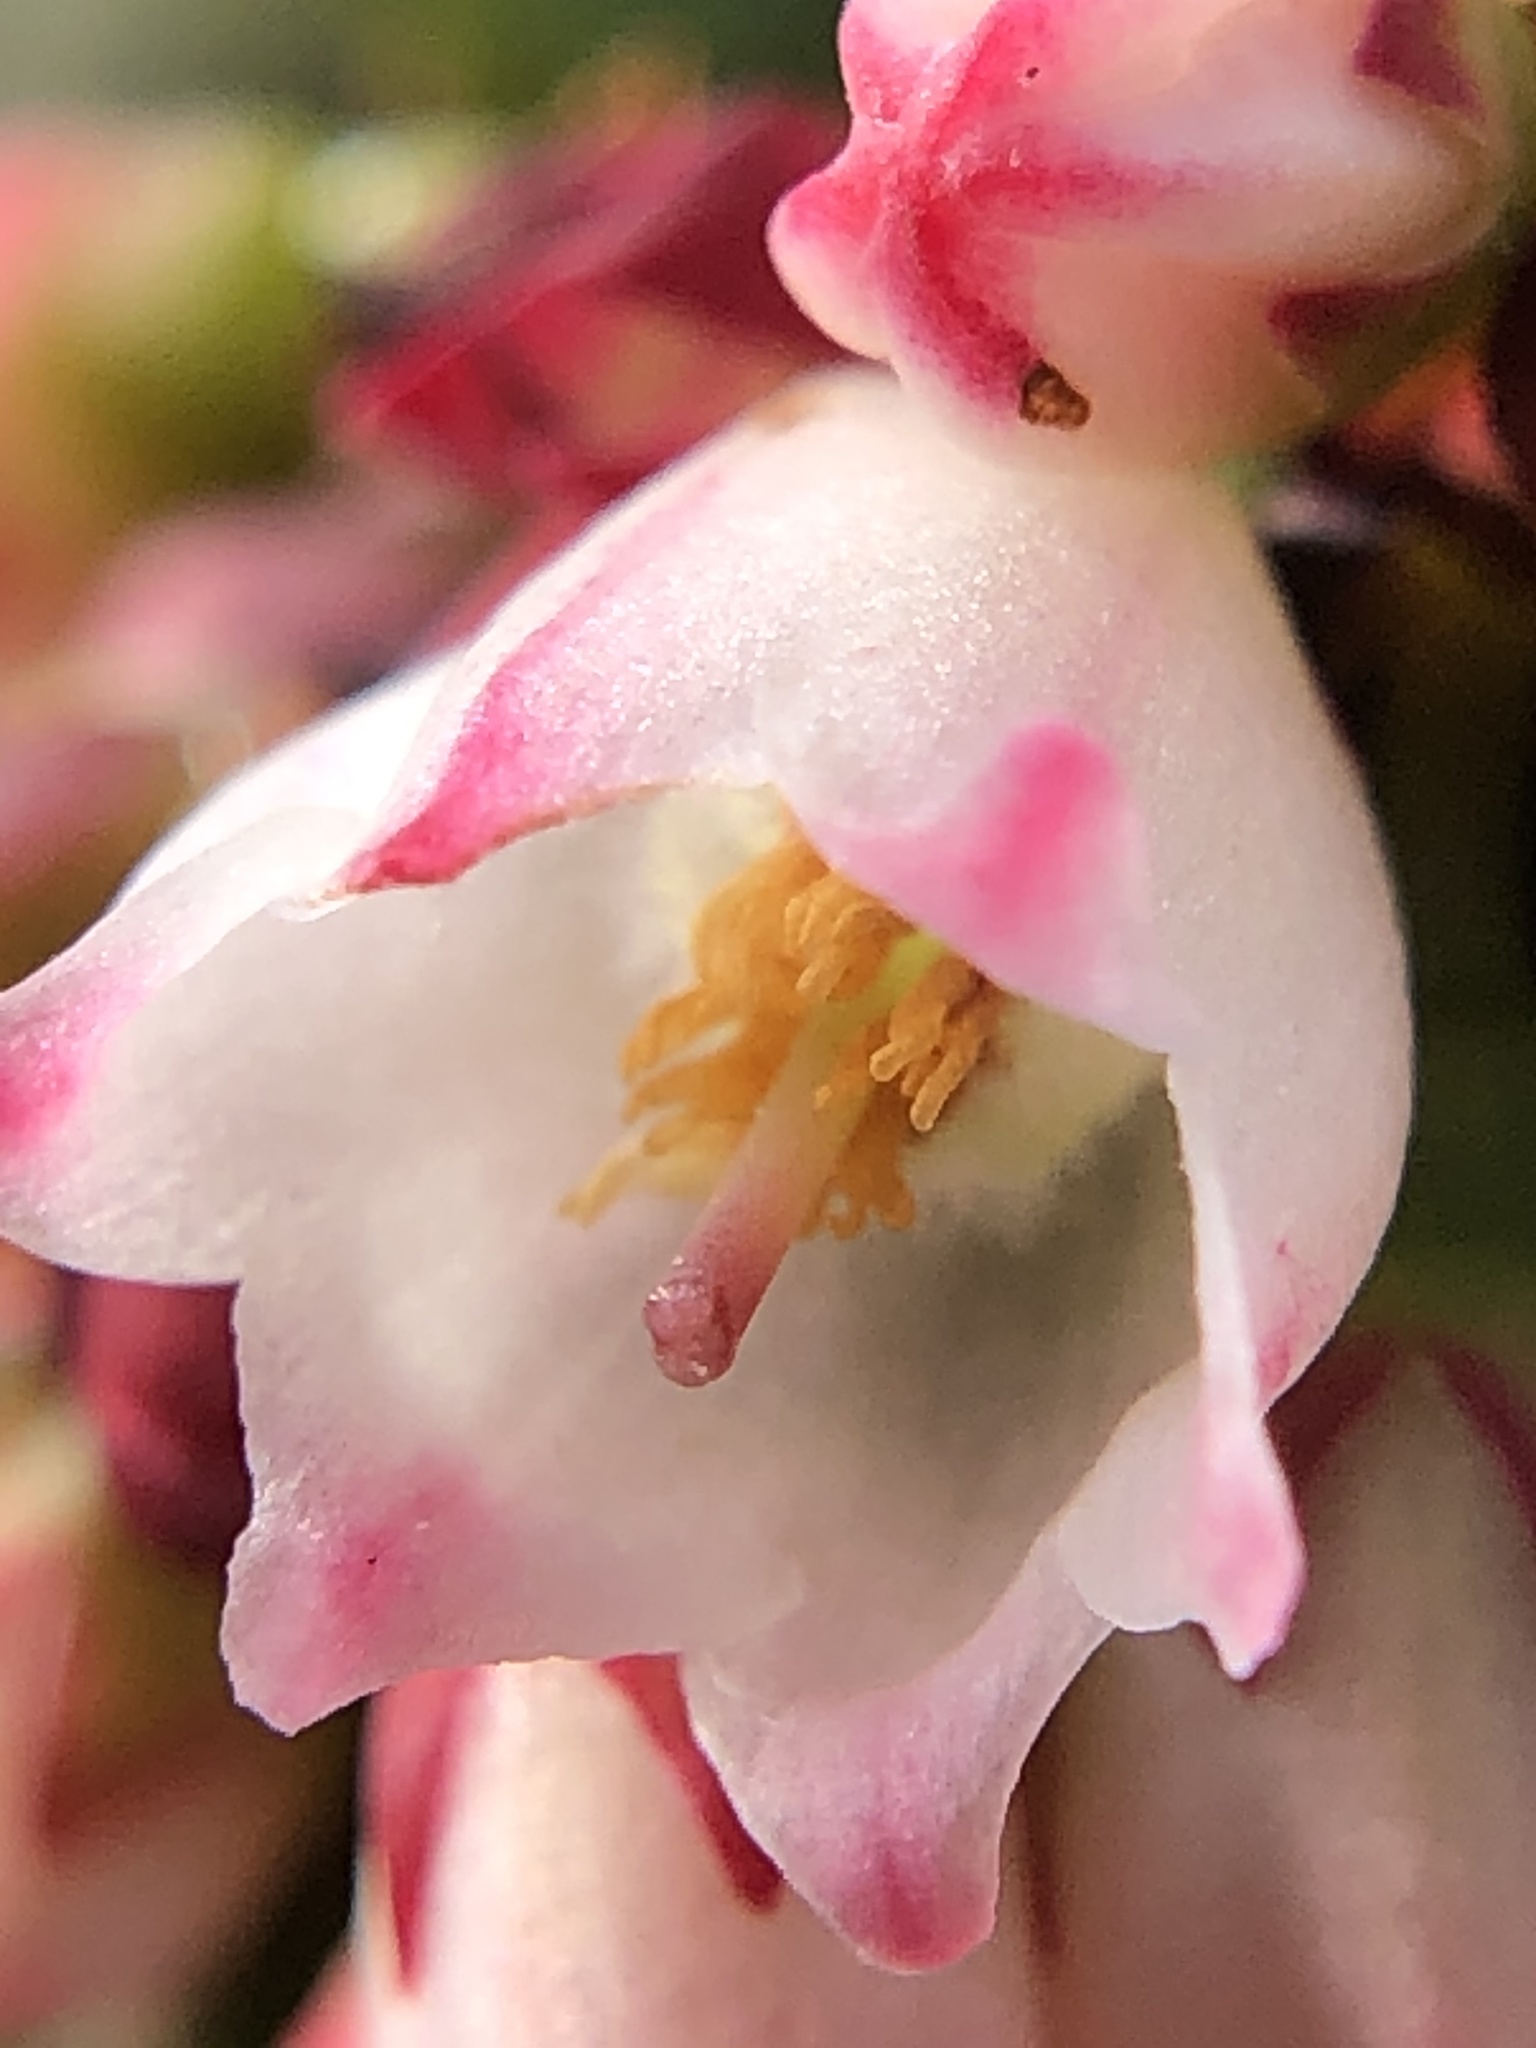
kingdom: Plantae
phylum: Tracheophyta
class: Magnoliopsida
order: Ericales
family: Ericaceae
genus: Vaccinium
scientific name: Vaccinium ovatum
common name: California-huckleberry
